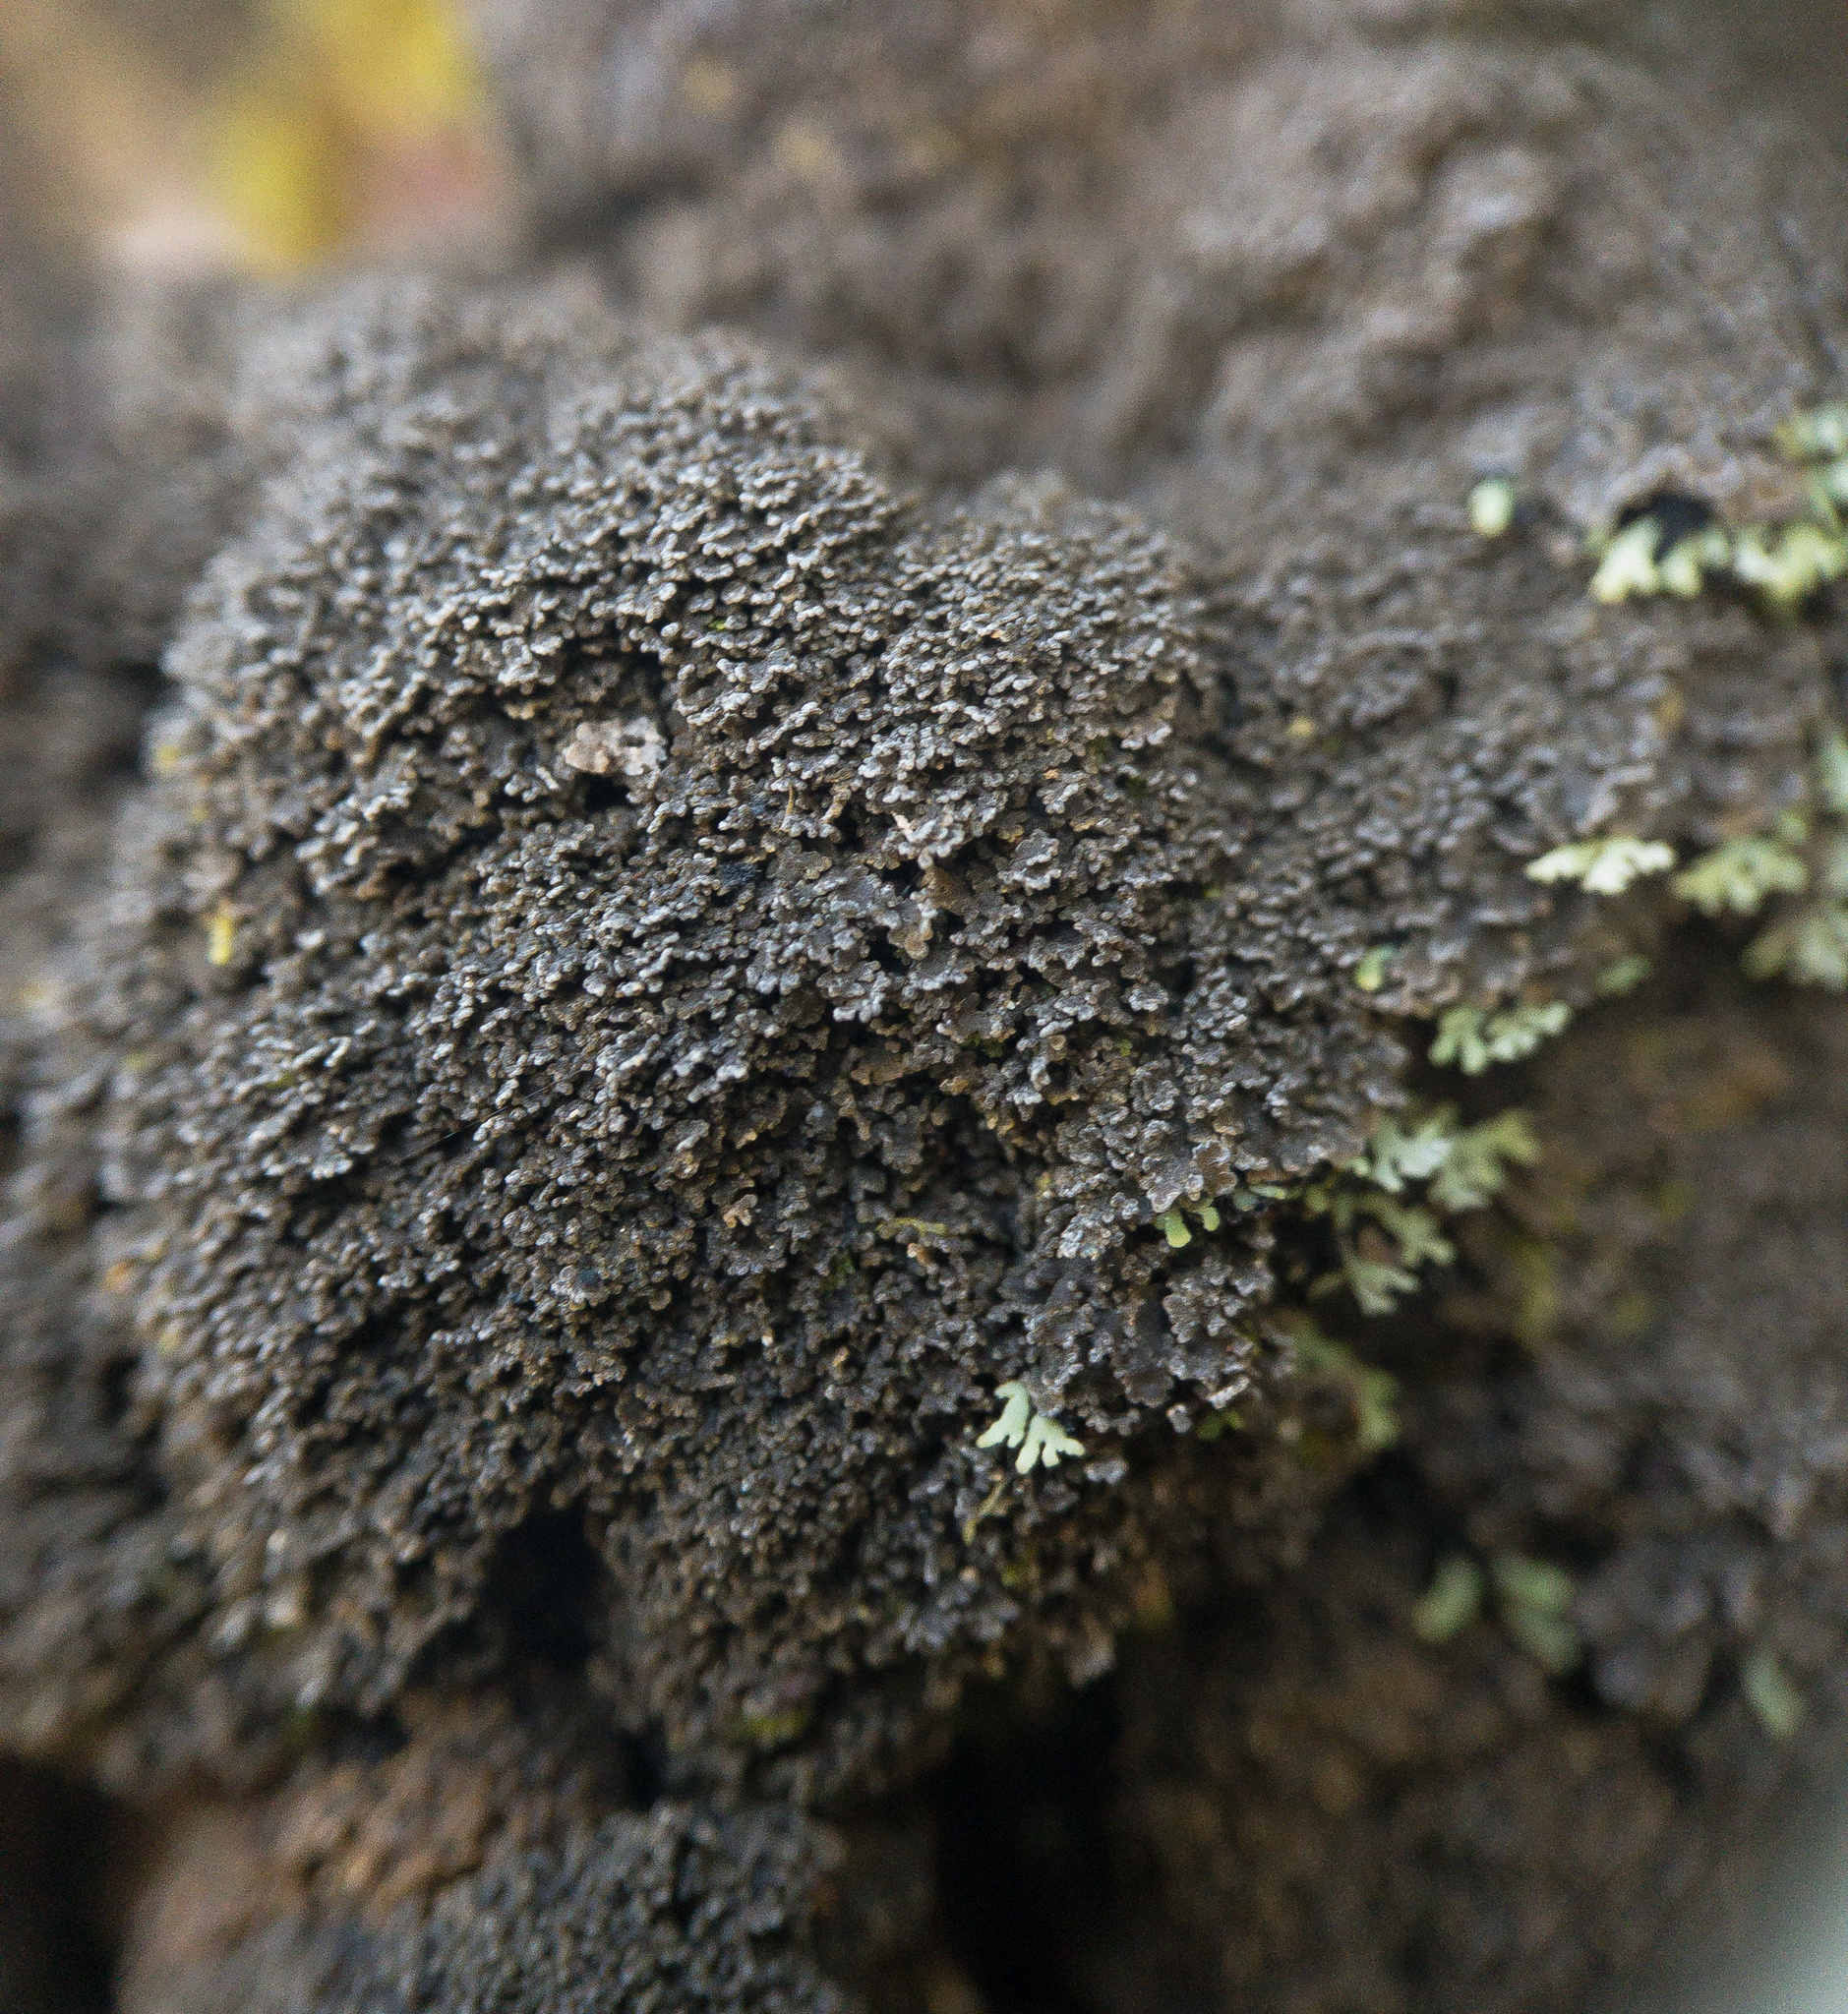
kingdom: Fungi
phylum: Ascomycota
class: Lecanoromycetes
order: Peltigerales
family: Pannariaceae
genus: Parmeliella
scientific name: Parmeliella thriptophylla
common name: Black-bordered shingle lichen
